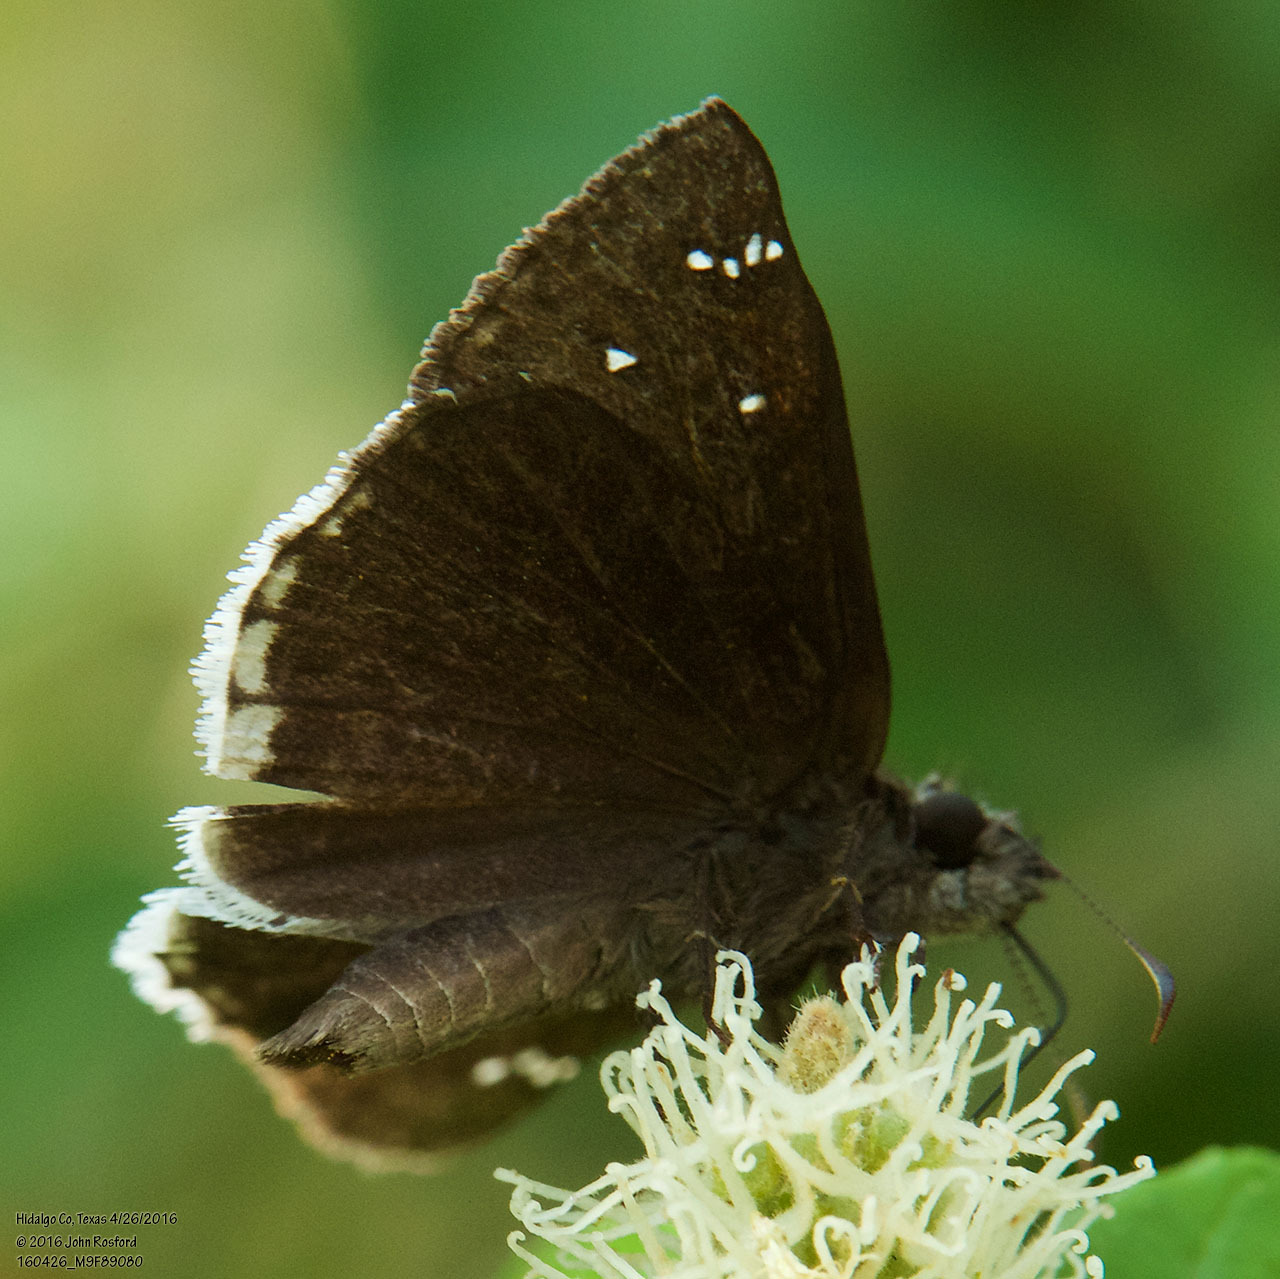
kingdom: Animalia
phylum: Arthropoda
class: Insecta
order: Lepidoptera
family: Hesperiidae
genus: Erynnis
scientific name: Erynnis tristis
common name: Mournful duskywing
